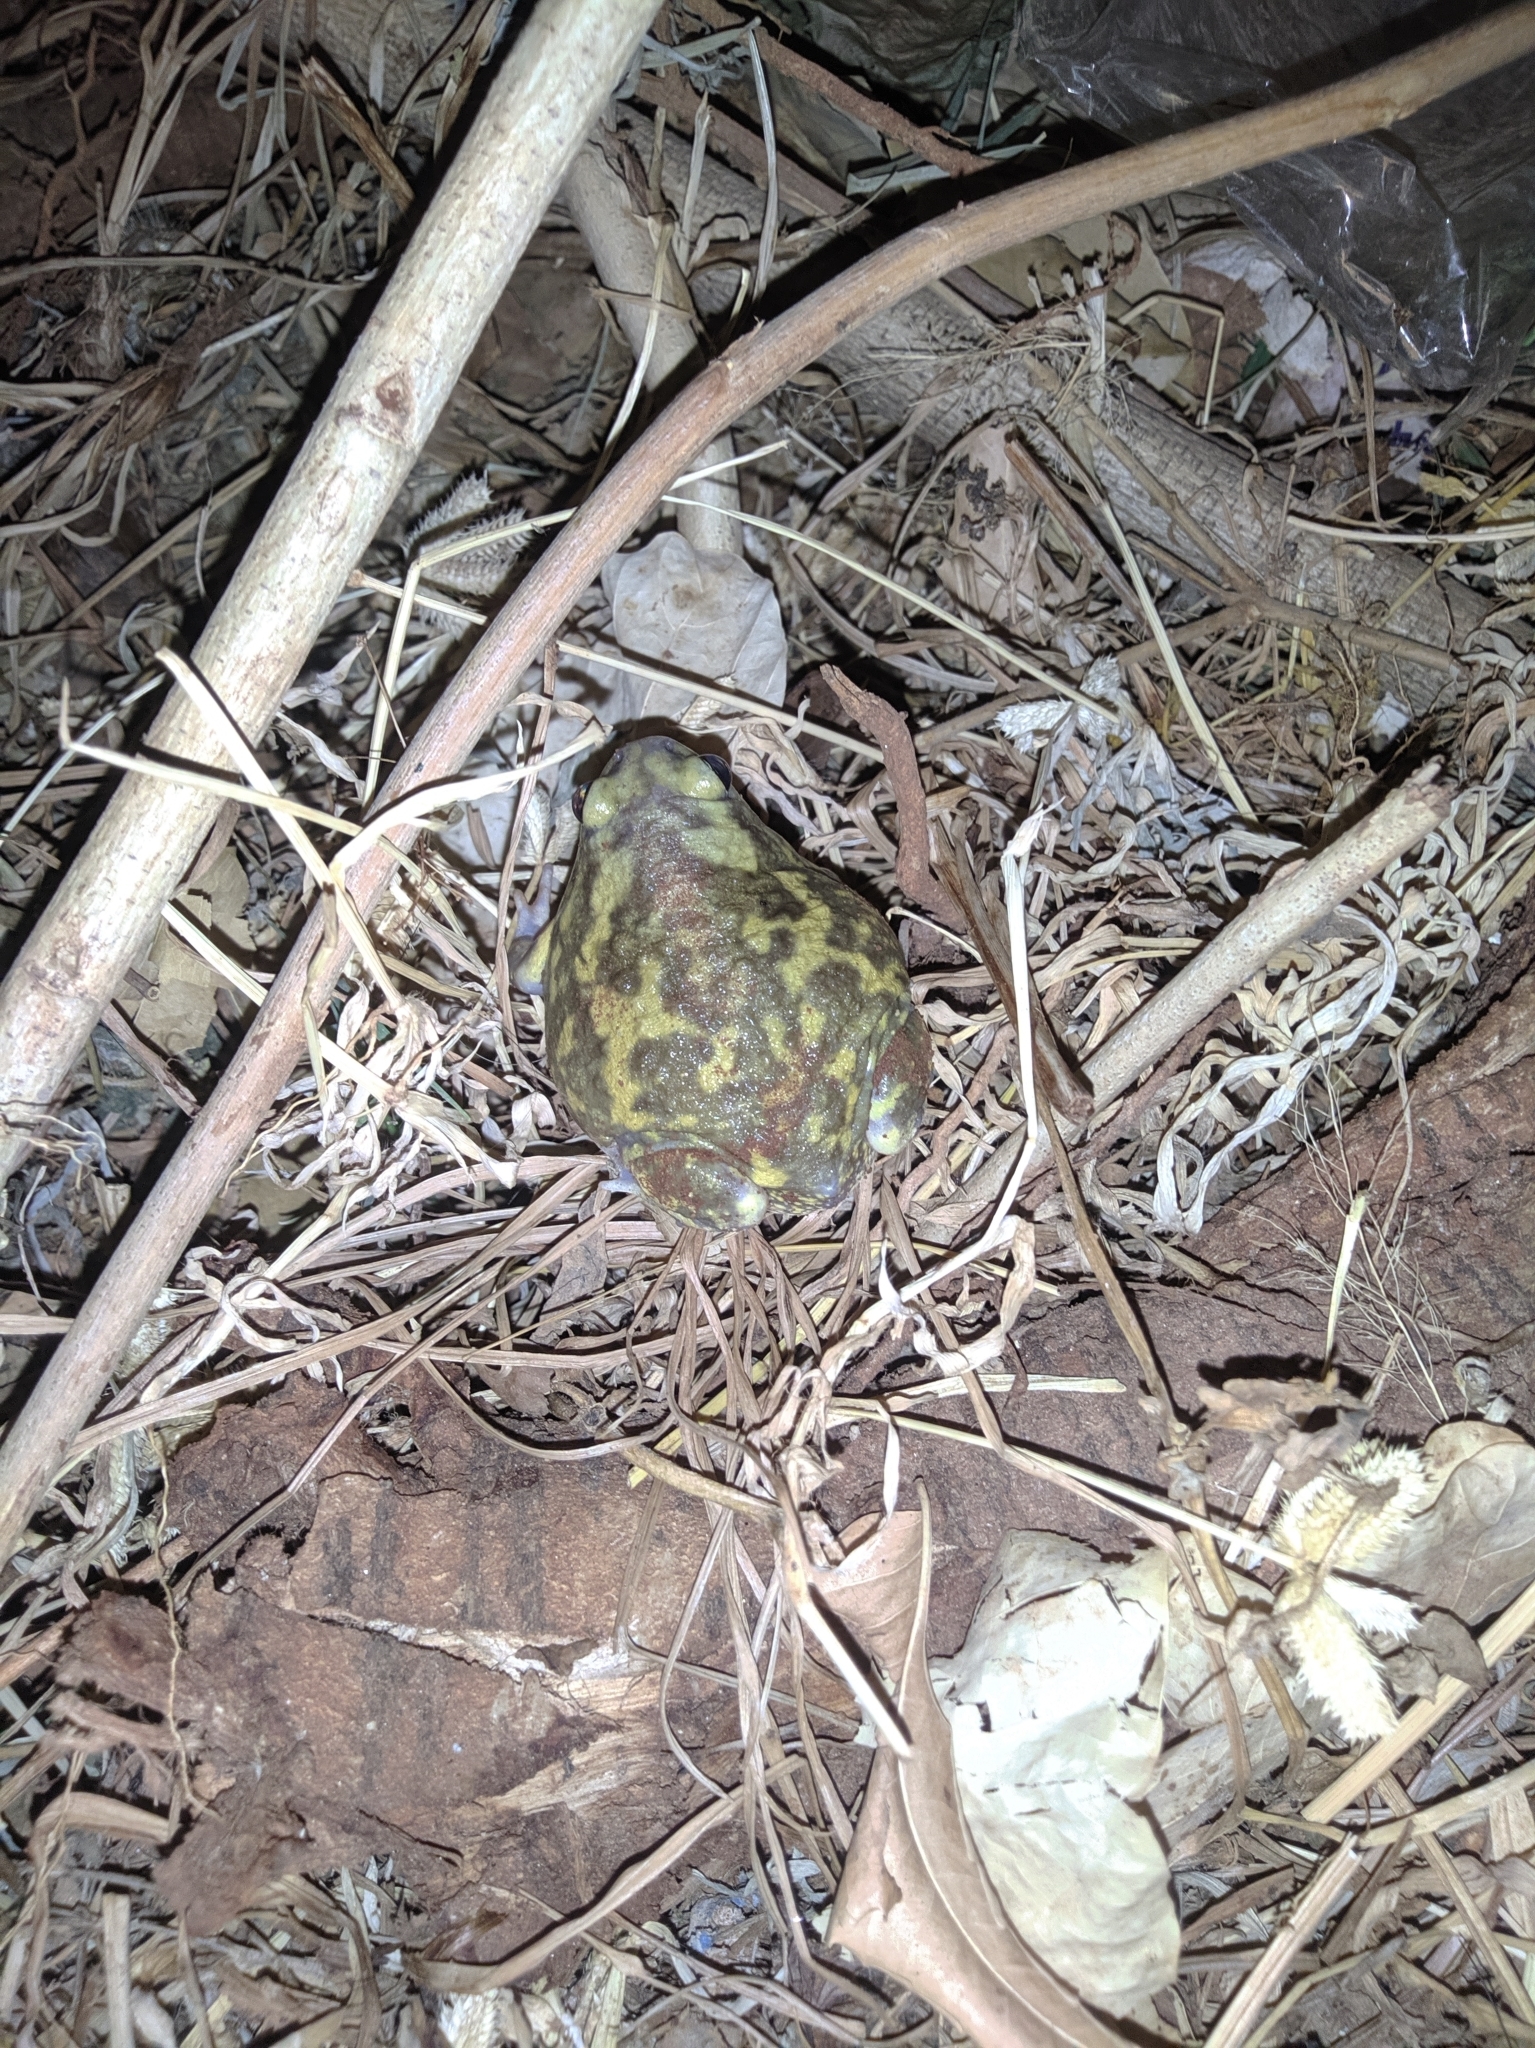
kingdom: Animalia
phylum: Chordata
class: Amphibia
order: Anura
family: Microhylidae
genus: Uperodon
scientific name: Uperodon systoma
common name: Balloon frog
